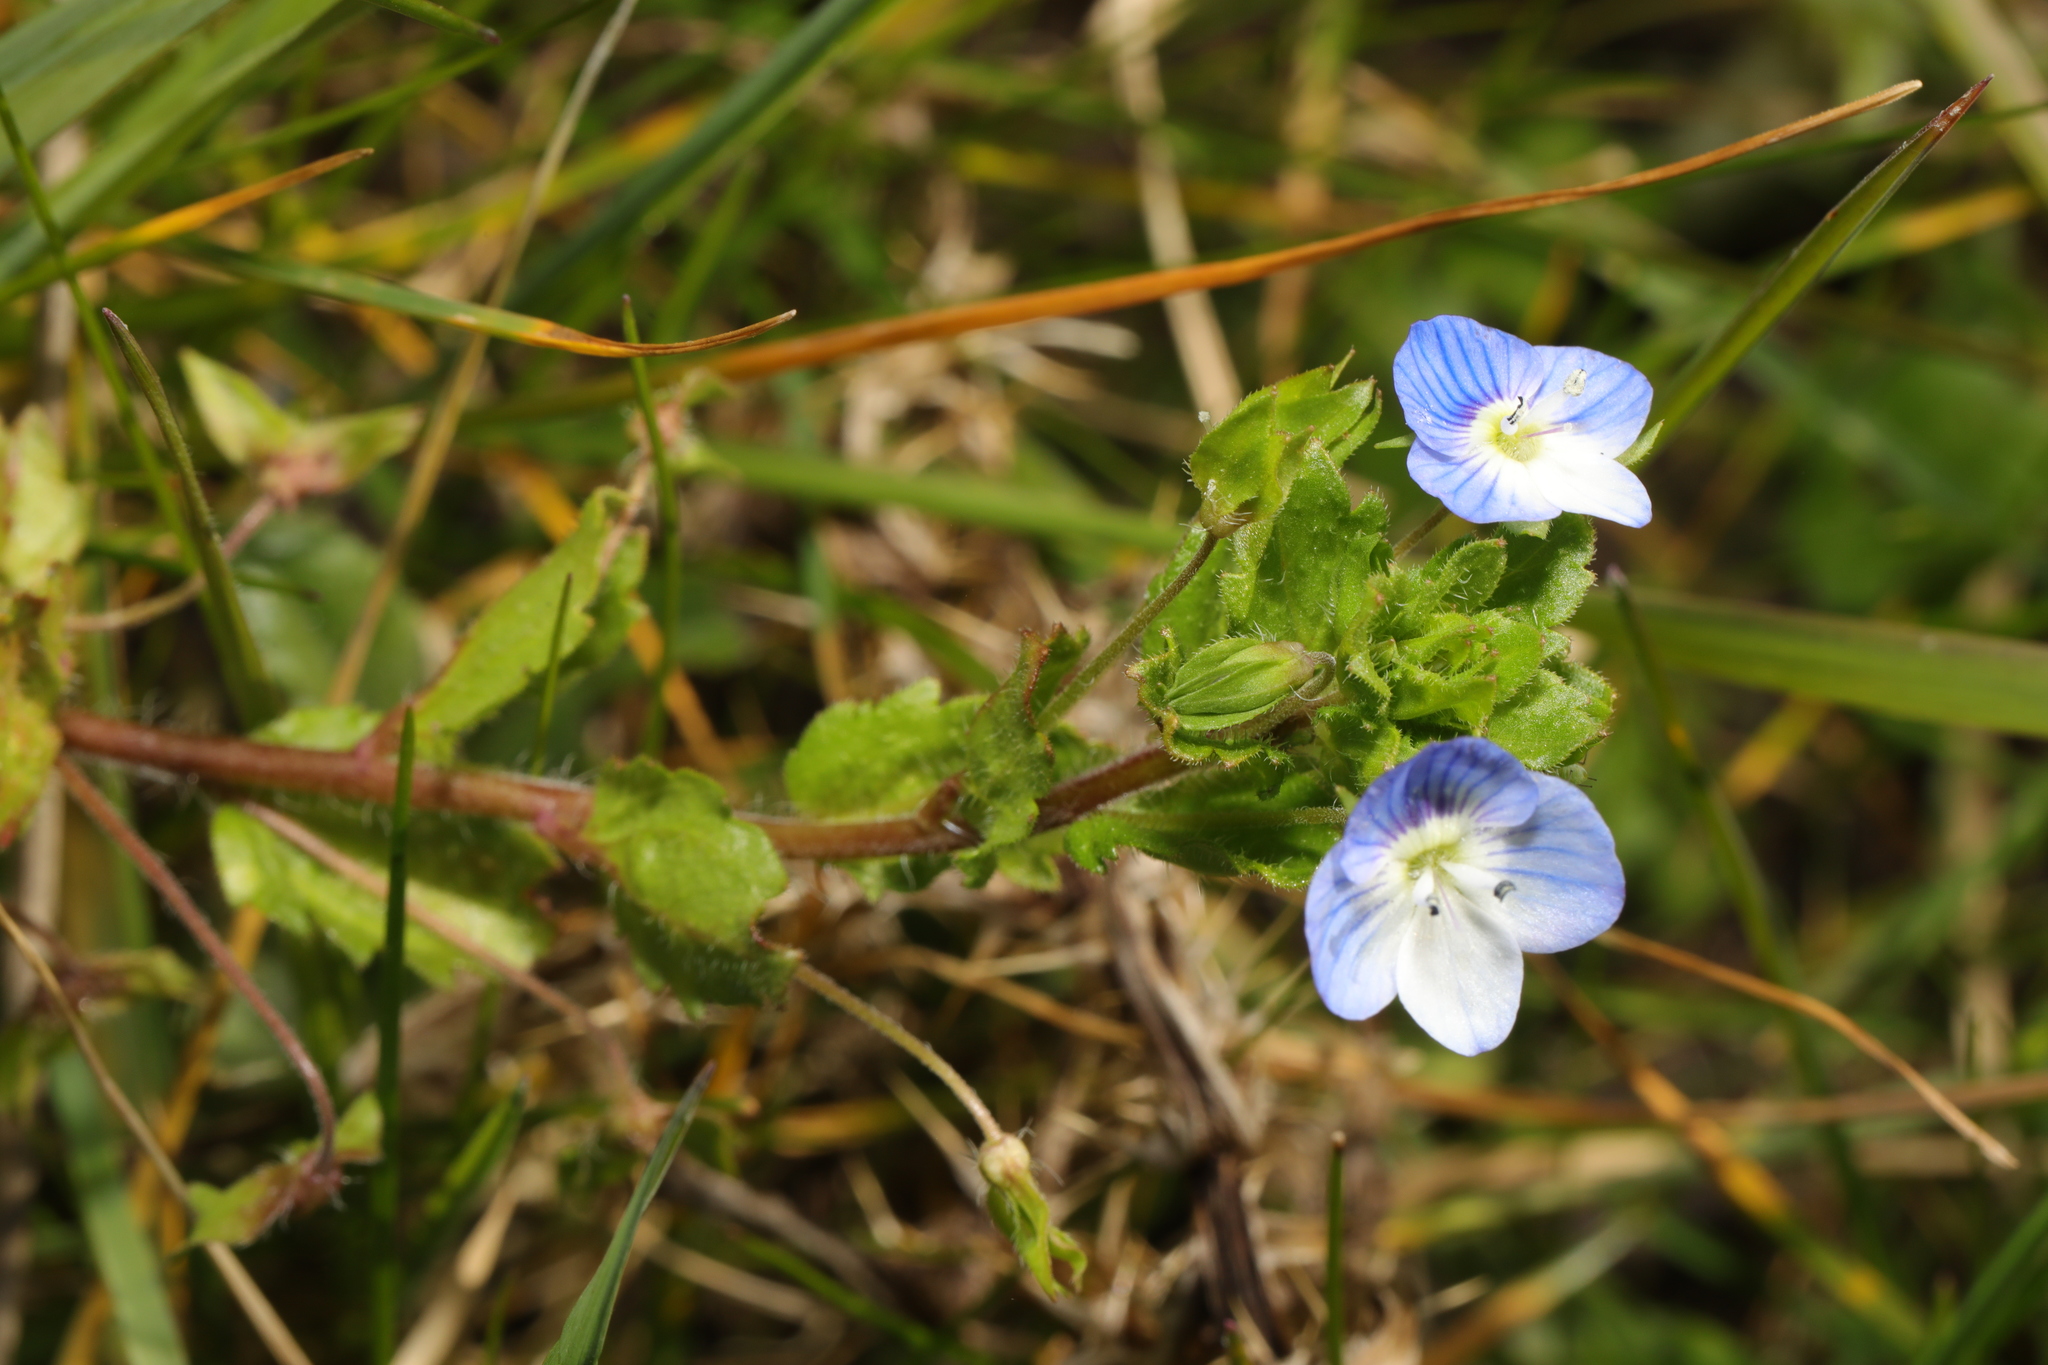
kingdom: Plantae
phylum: Tracheophyta
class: Magnoliopsida
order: Lamiales
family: Plantaginaceae
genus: Veronica
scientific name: Veronica persica
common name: Common field-speedwell
